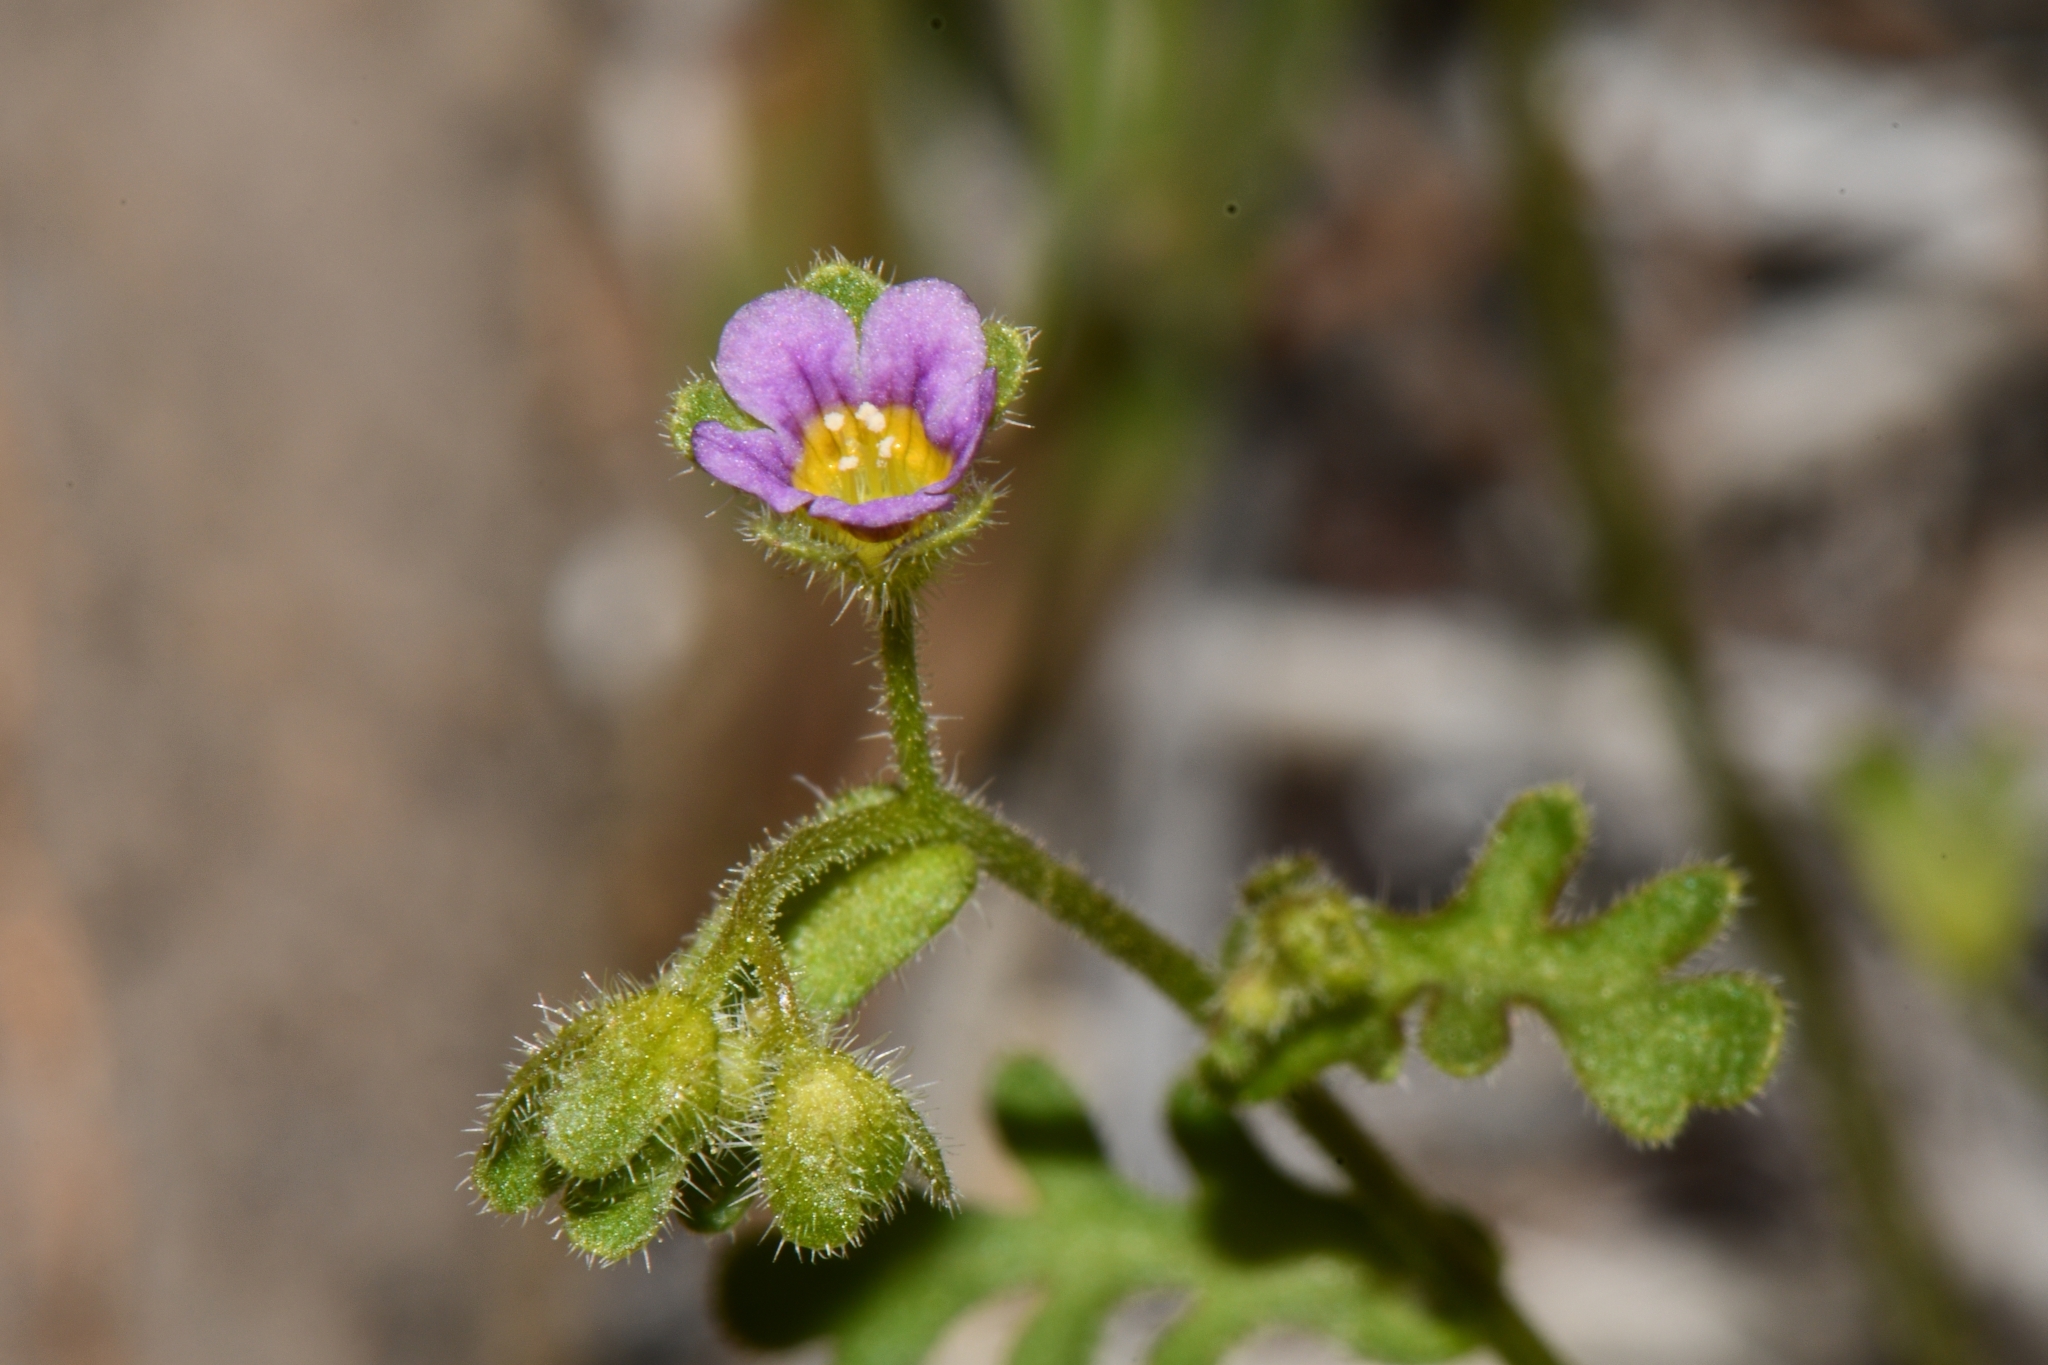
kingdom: Plantae
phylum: Tracheophyta
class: Magnoliopsida
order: Boraginales
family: Hydrophyllaceae
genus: Eucrypta
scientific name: Eucrypta micrantha
